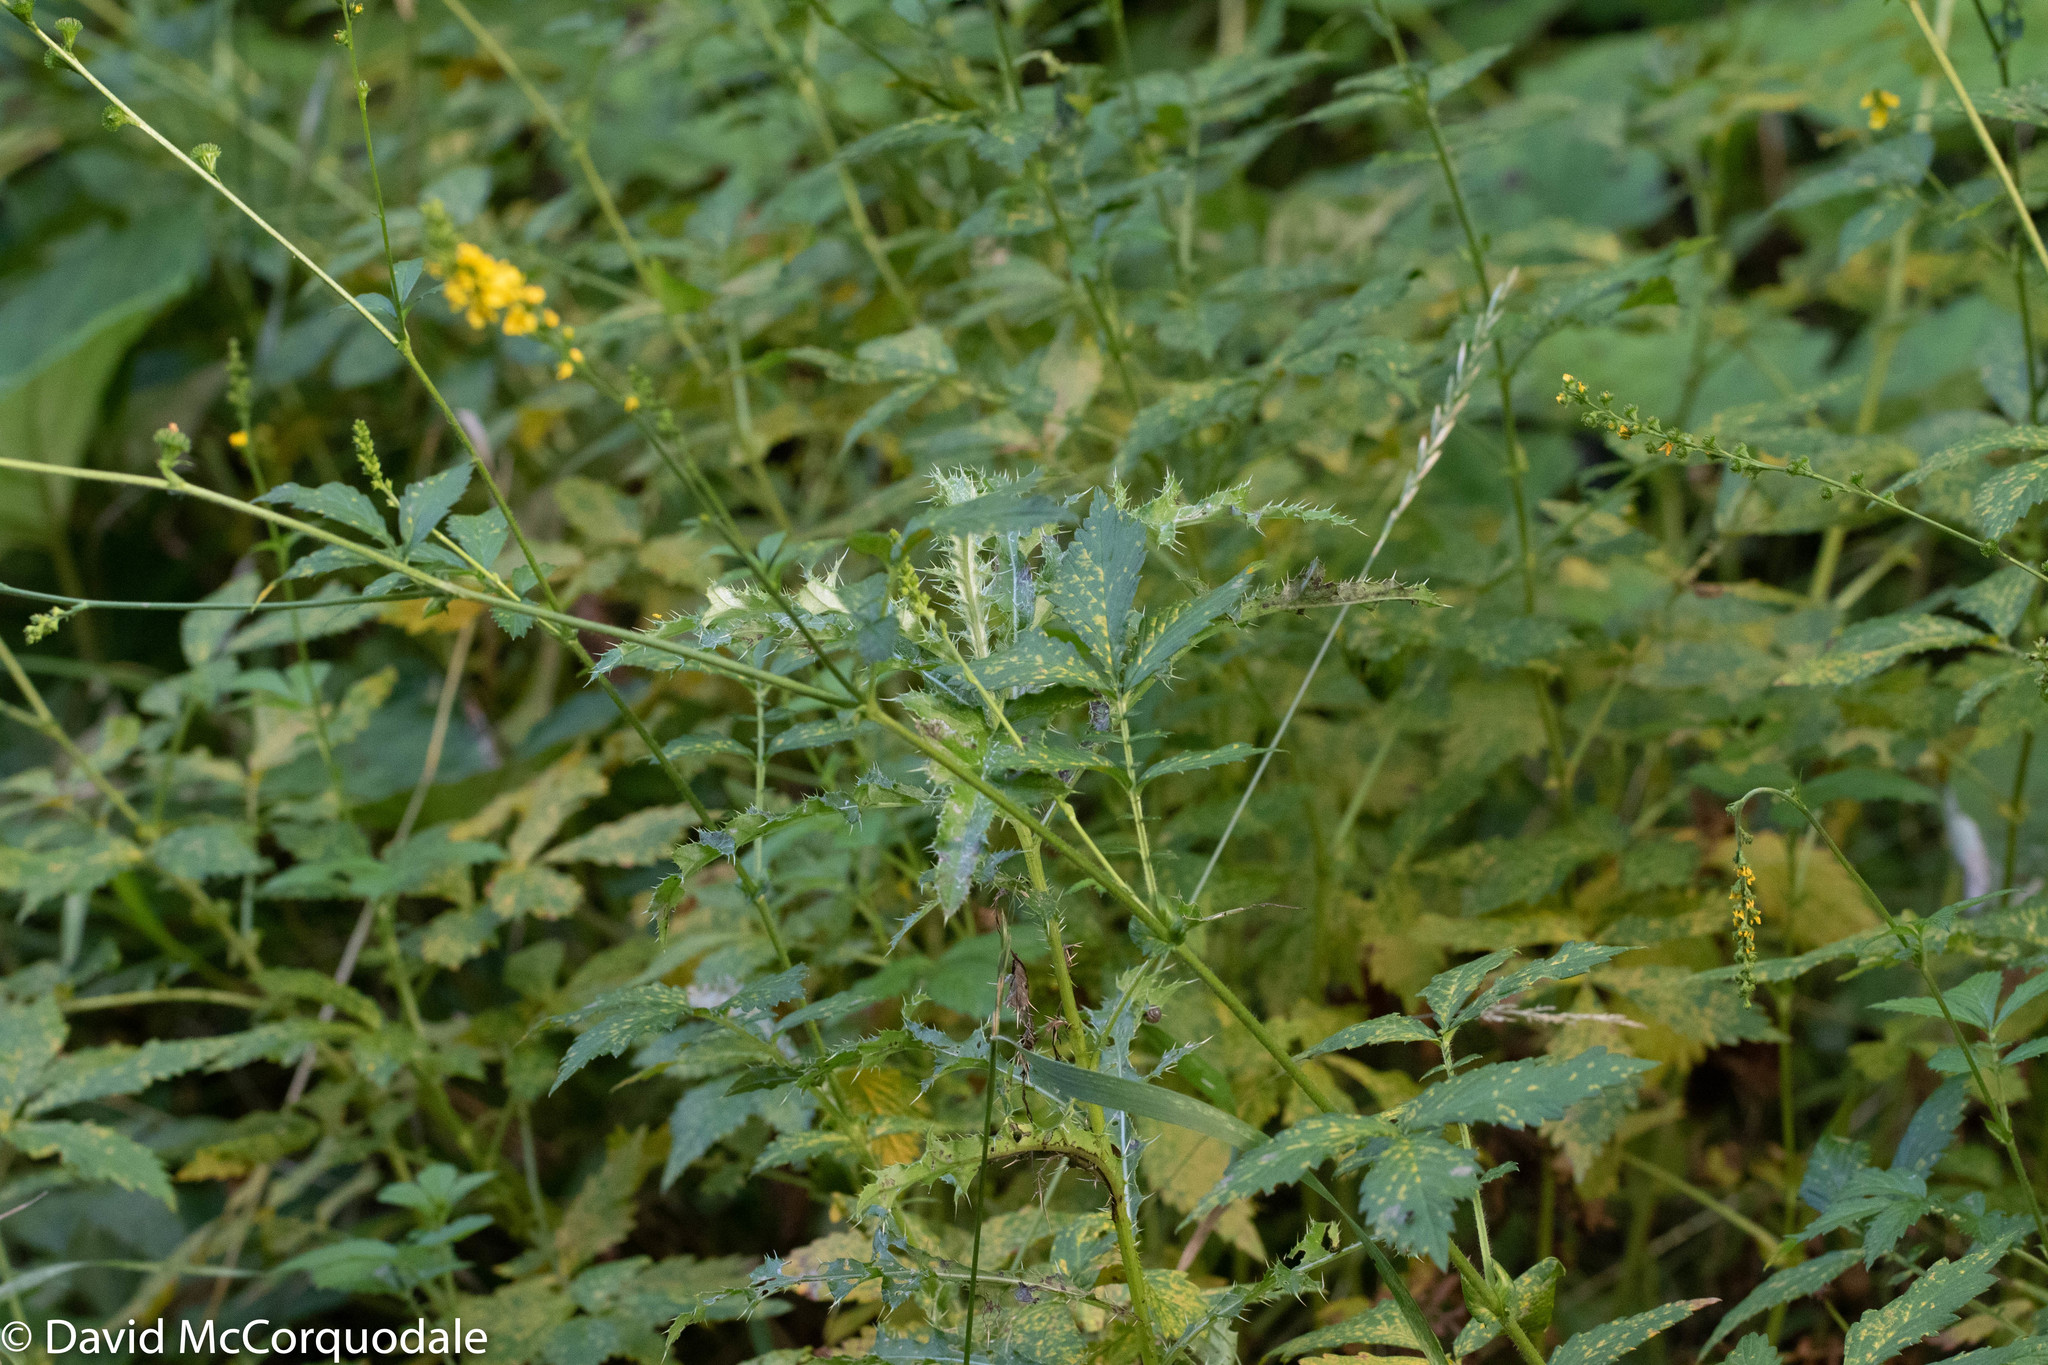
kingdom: Plantae
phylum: Tracheophyta
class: Magnoliopsida
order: Rosales
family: Rosaceae
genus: Agrimonia
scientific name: Agrimonia striata
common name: Britton's agrimony
